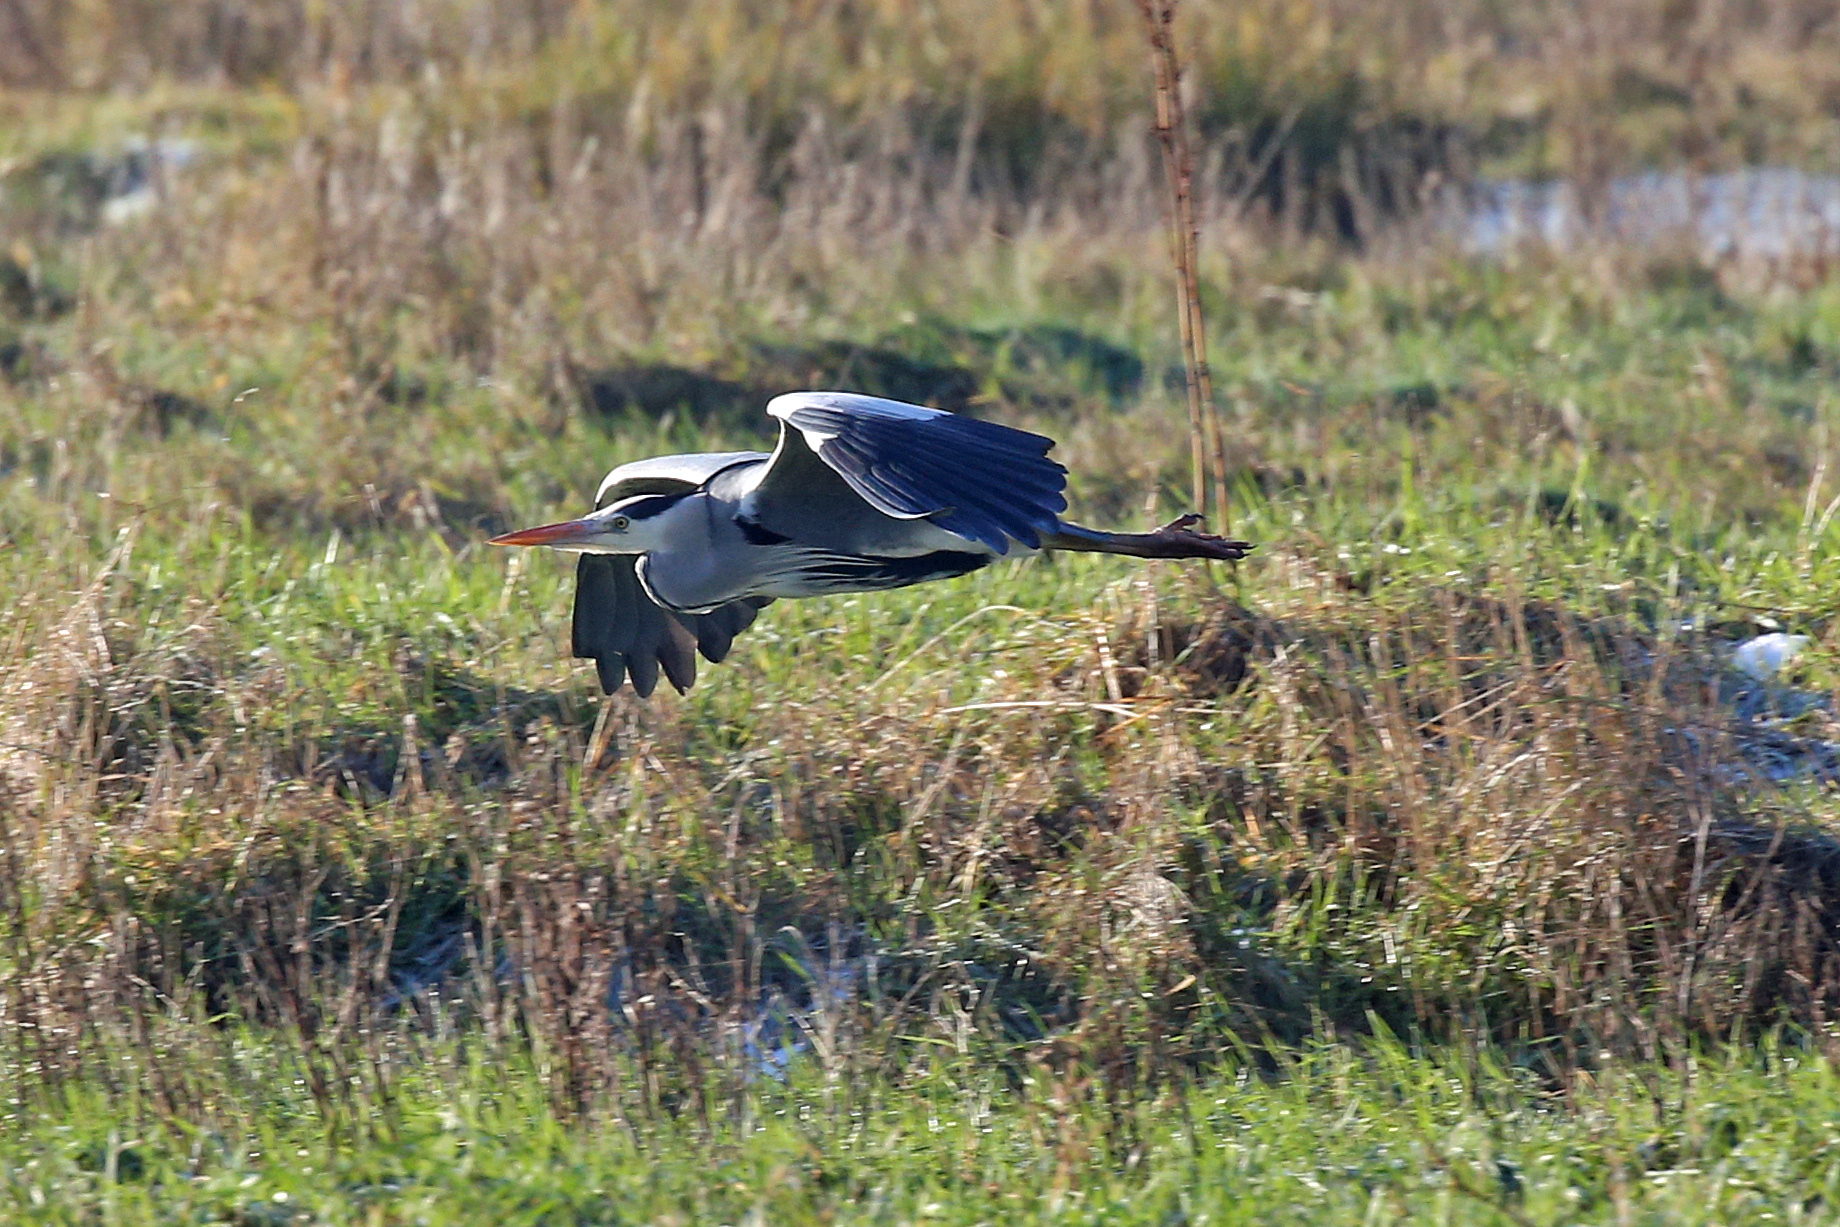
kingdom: Animalia
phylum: Chordata
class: Aves
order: Pelecaniformes
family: Ardeidae
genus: Ardea
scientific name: Ardea cinerea
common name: Grey heron
